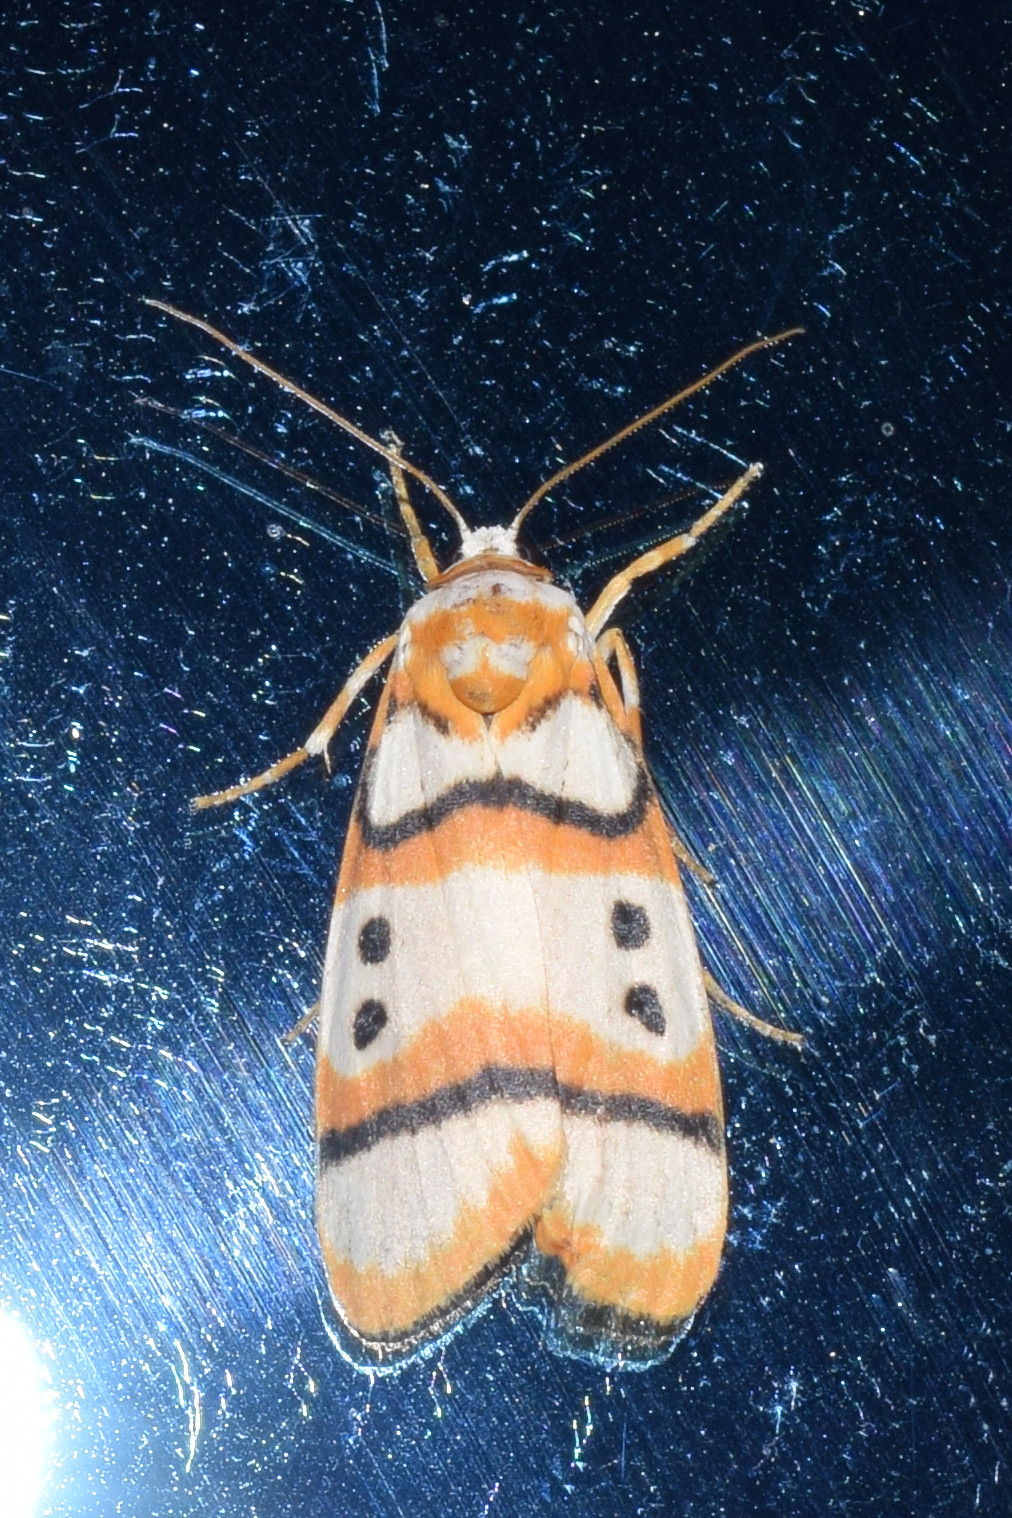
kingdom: Animalia
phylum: Arthropoda
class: Insecta
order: Lepidoptera
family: Erebidae
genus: Cyana
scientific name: Cyana coccinea
